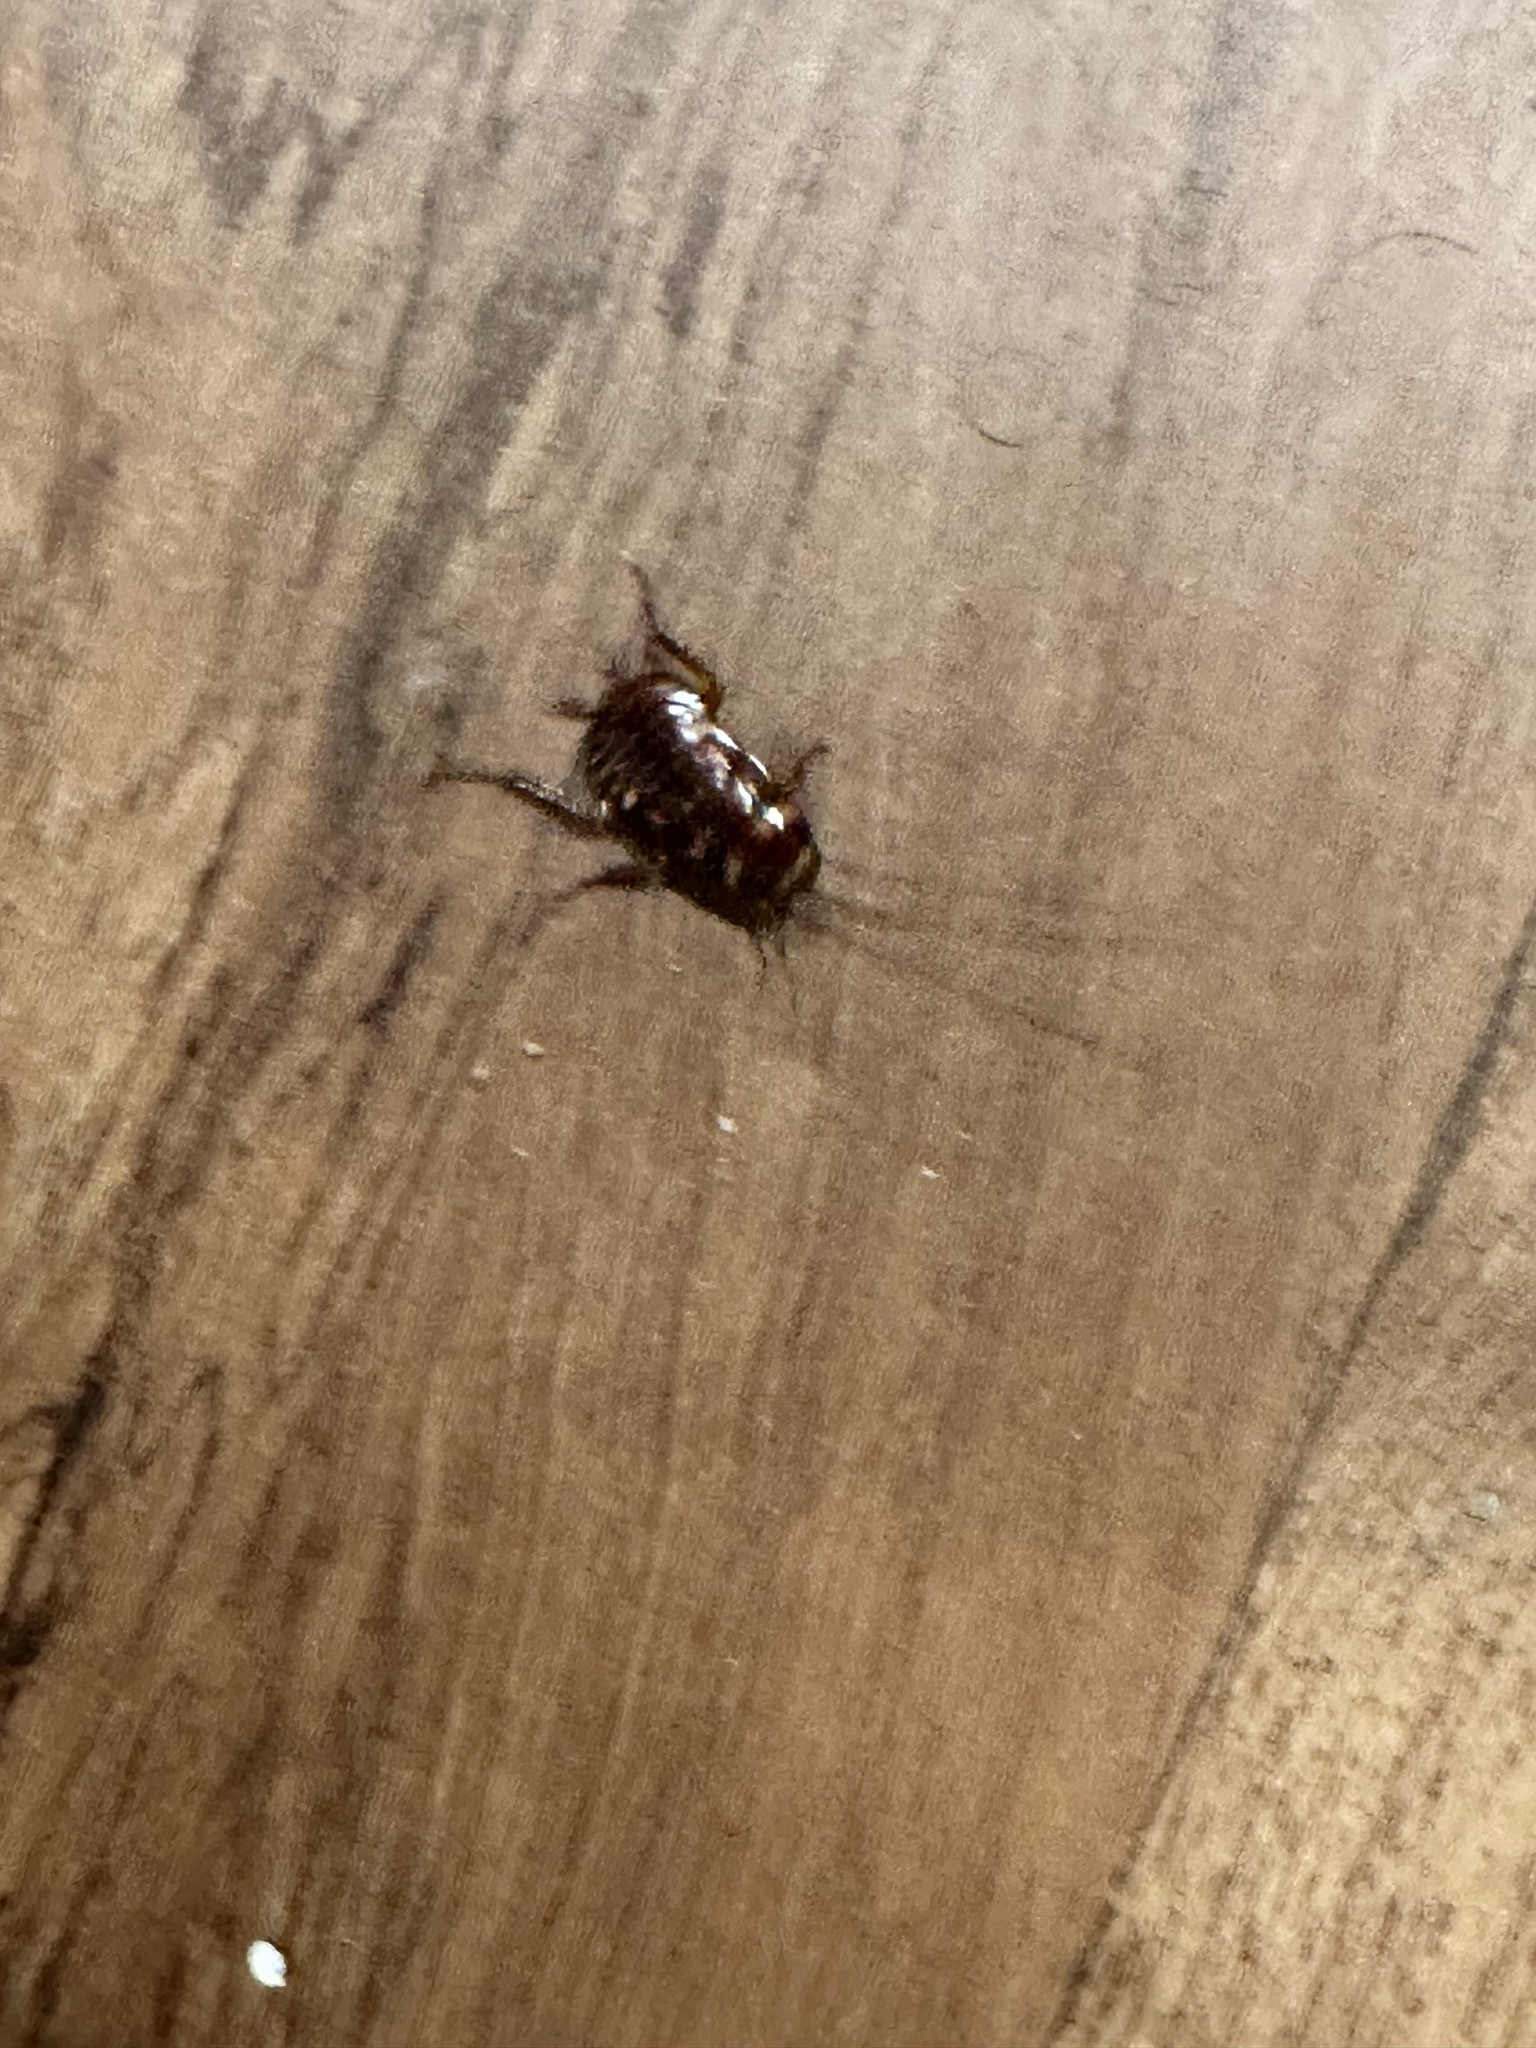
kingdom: Animalia
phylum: Arthropoda
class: Insecta
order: Blattodea
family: Blattidae
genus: Periplaneta
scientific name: Periplaneta australasiae
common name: Australian cockroach
